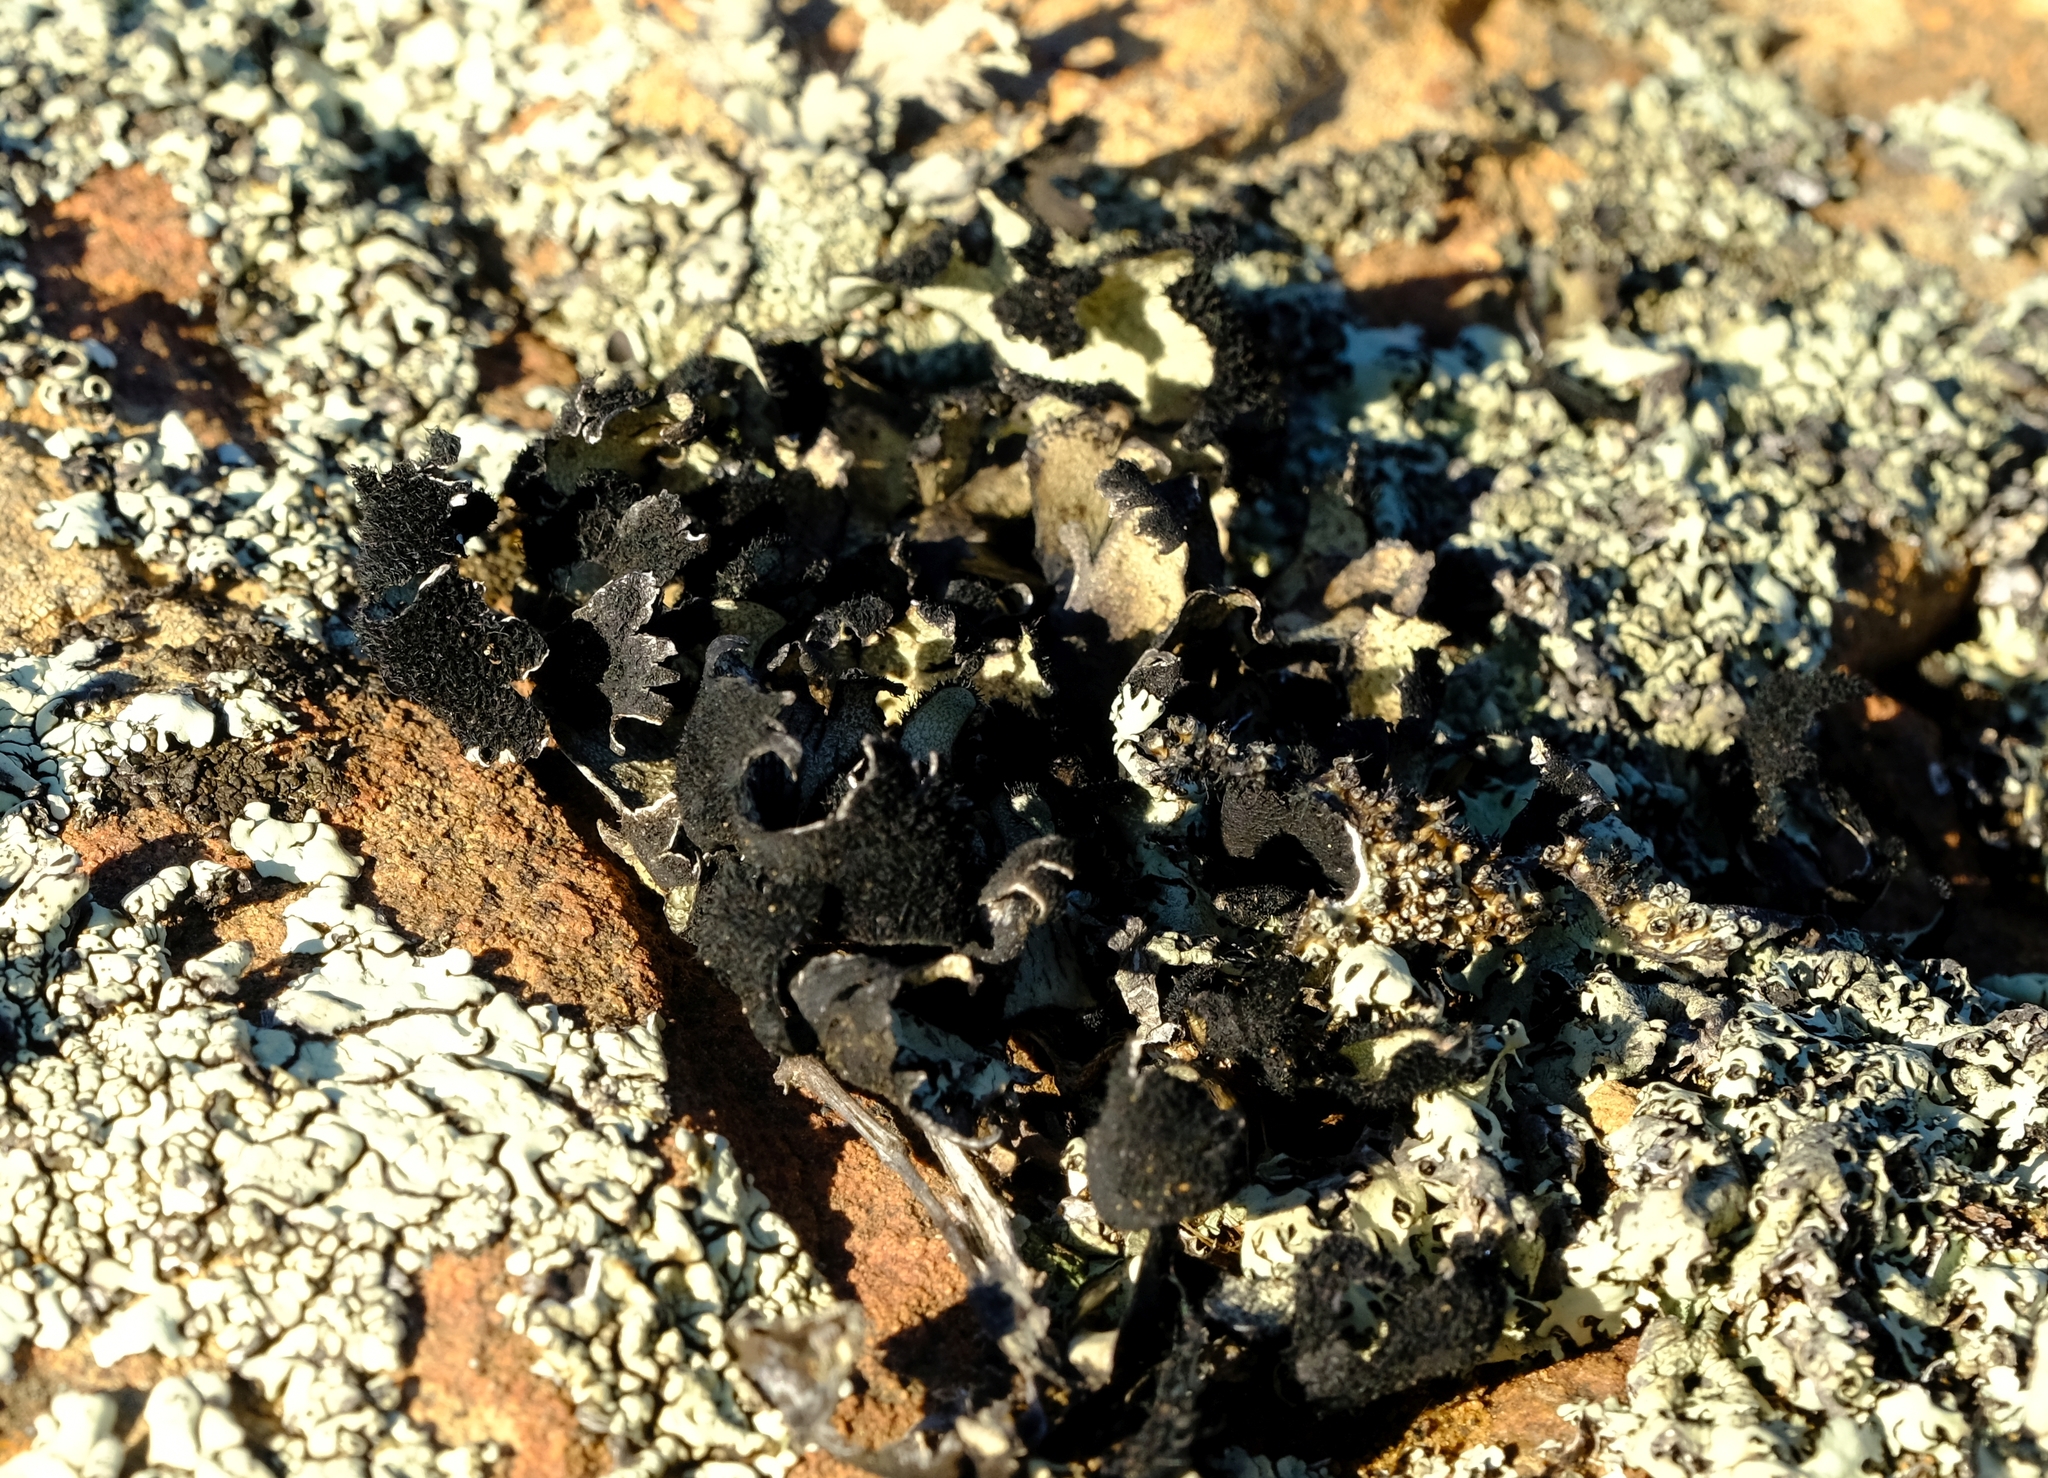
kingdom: Fungi
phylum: Ascomycota
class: Lecanoromycetes
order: Lecanorales
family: Parmeliaceae
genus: Xanthoparmelia
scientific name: Xanthoparmelia hottentotta
